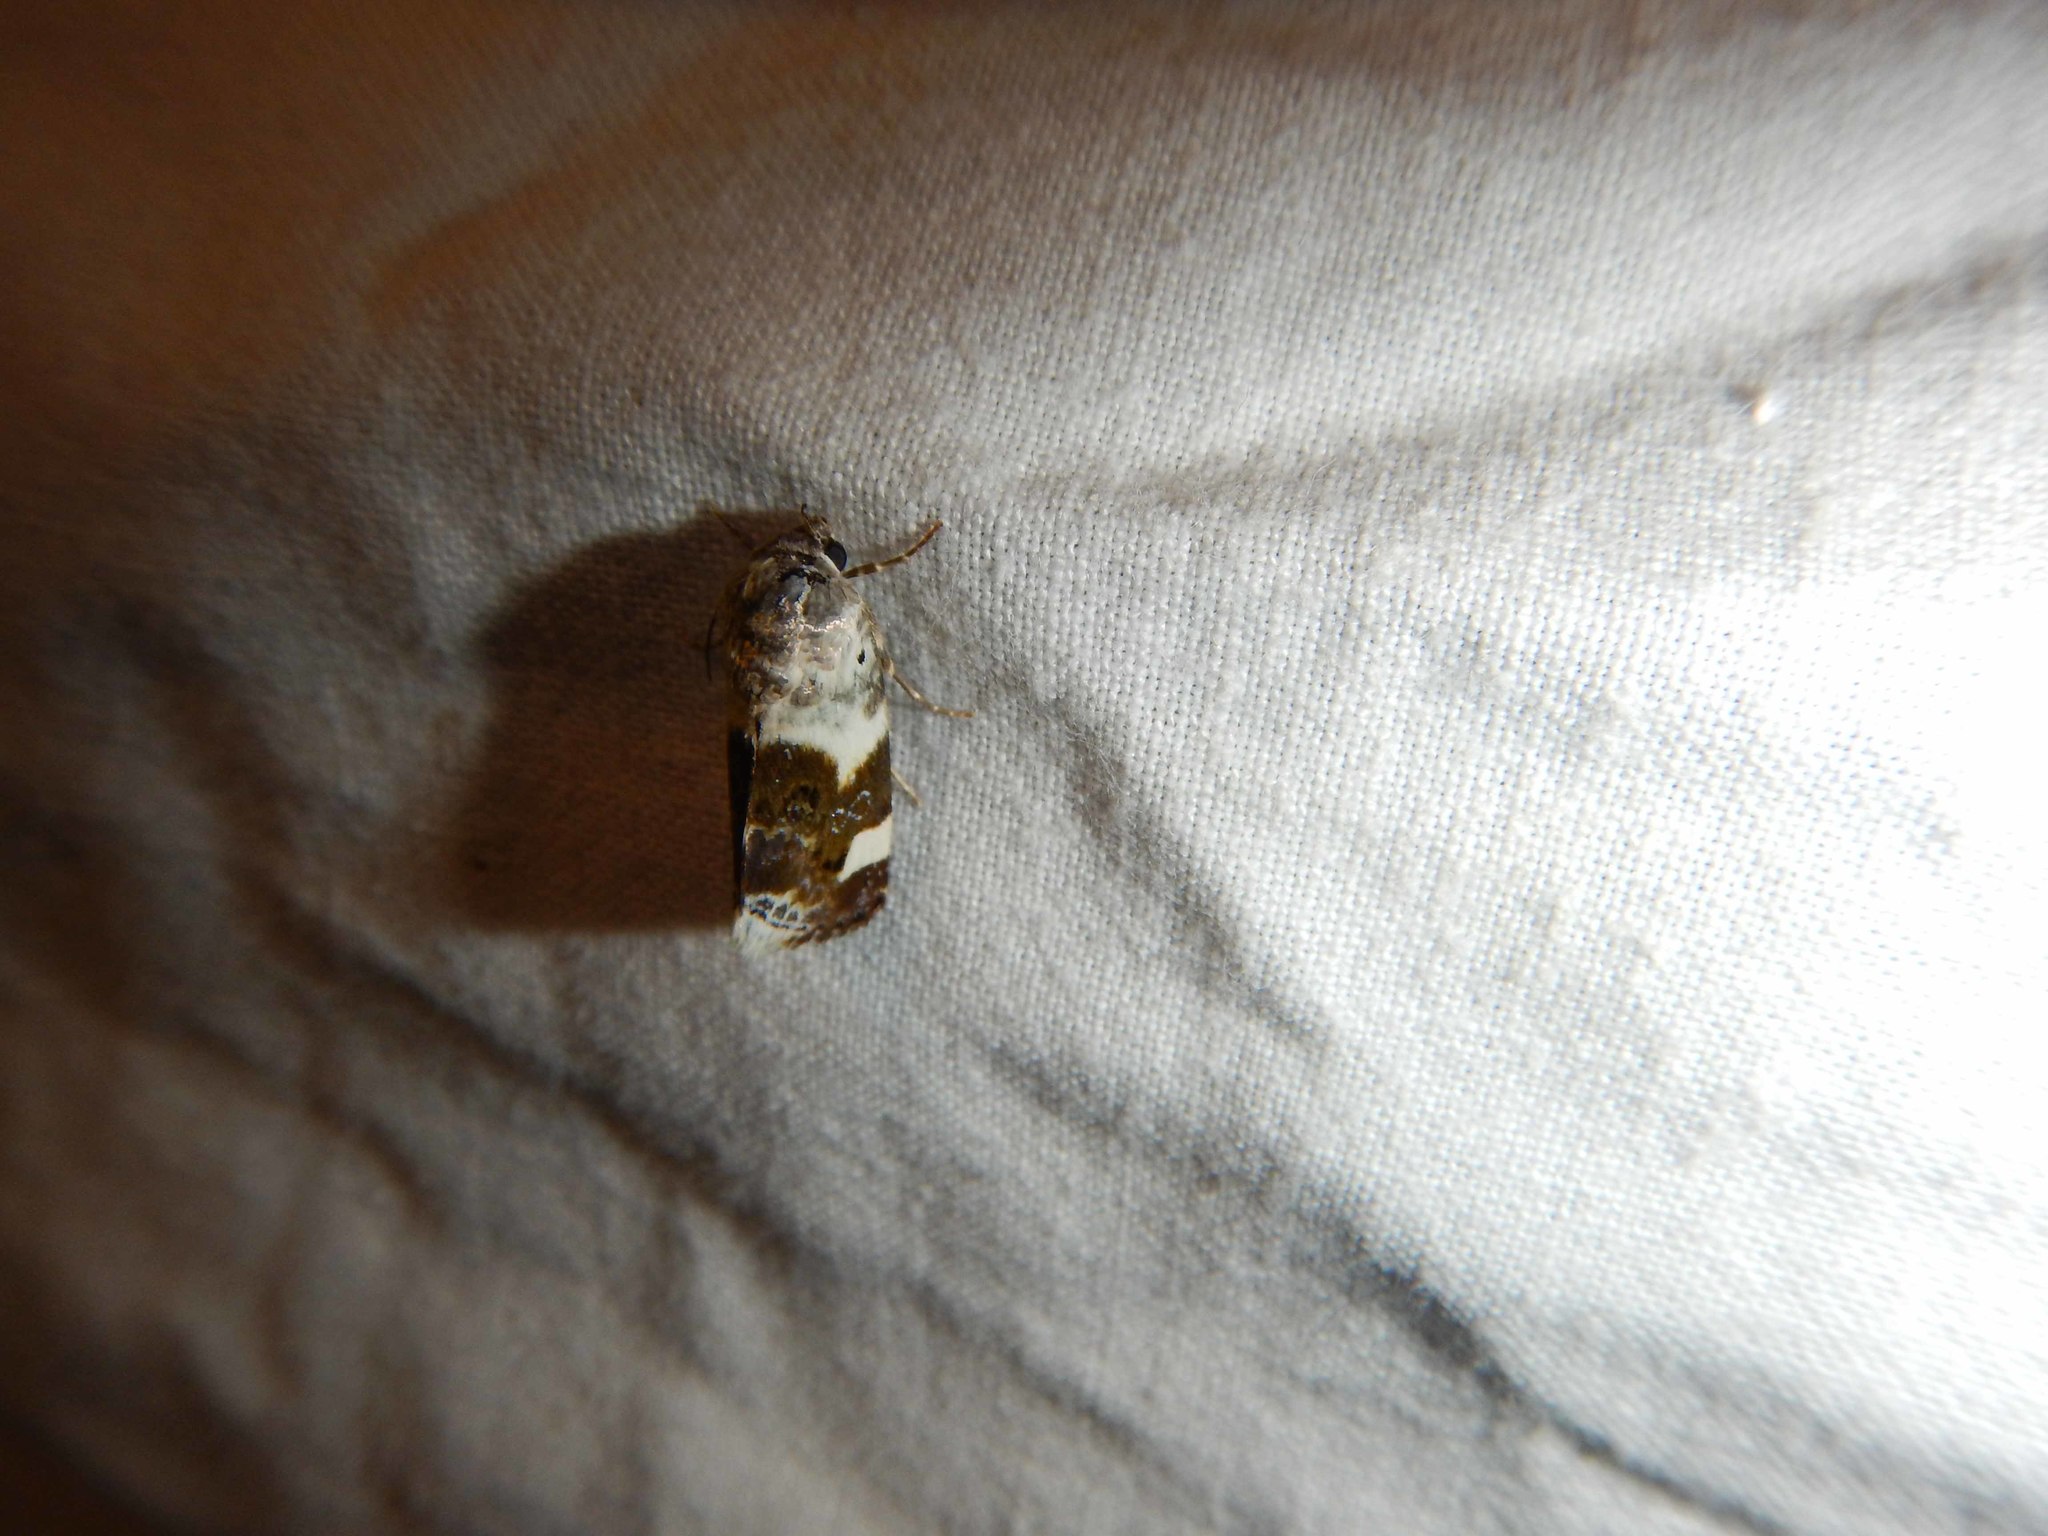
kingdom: Animalia
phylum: Arthropoda
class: Insecta
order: Lepidoptera
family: Noctuidae
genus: Acontia
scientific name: Acontia lucida
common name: Pale shoulder
